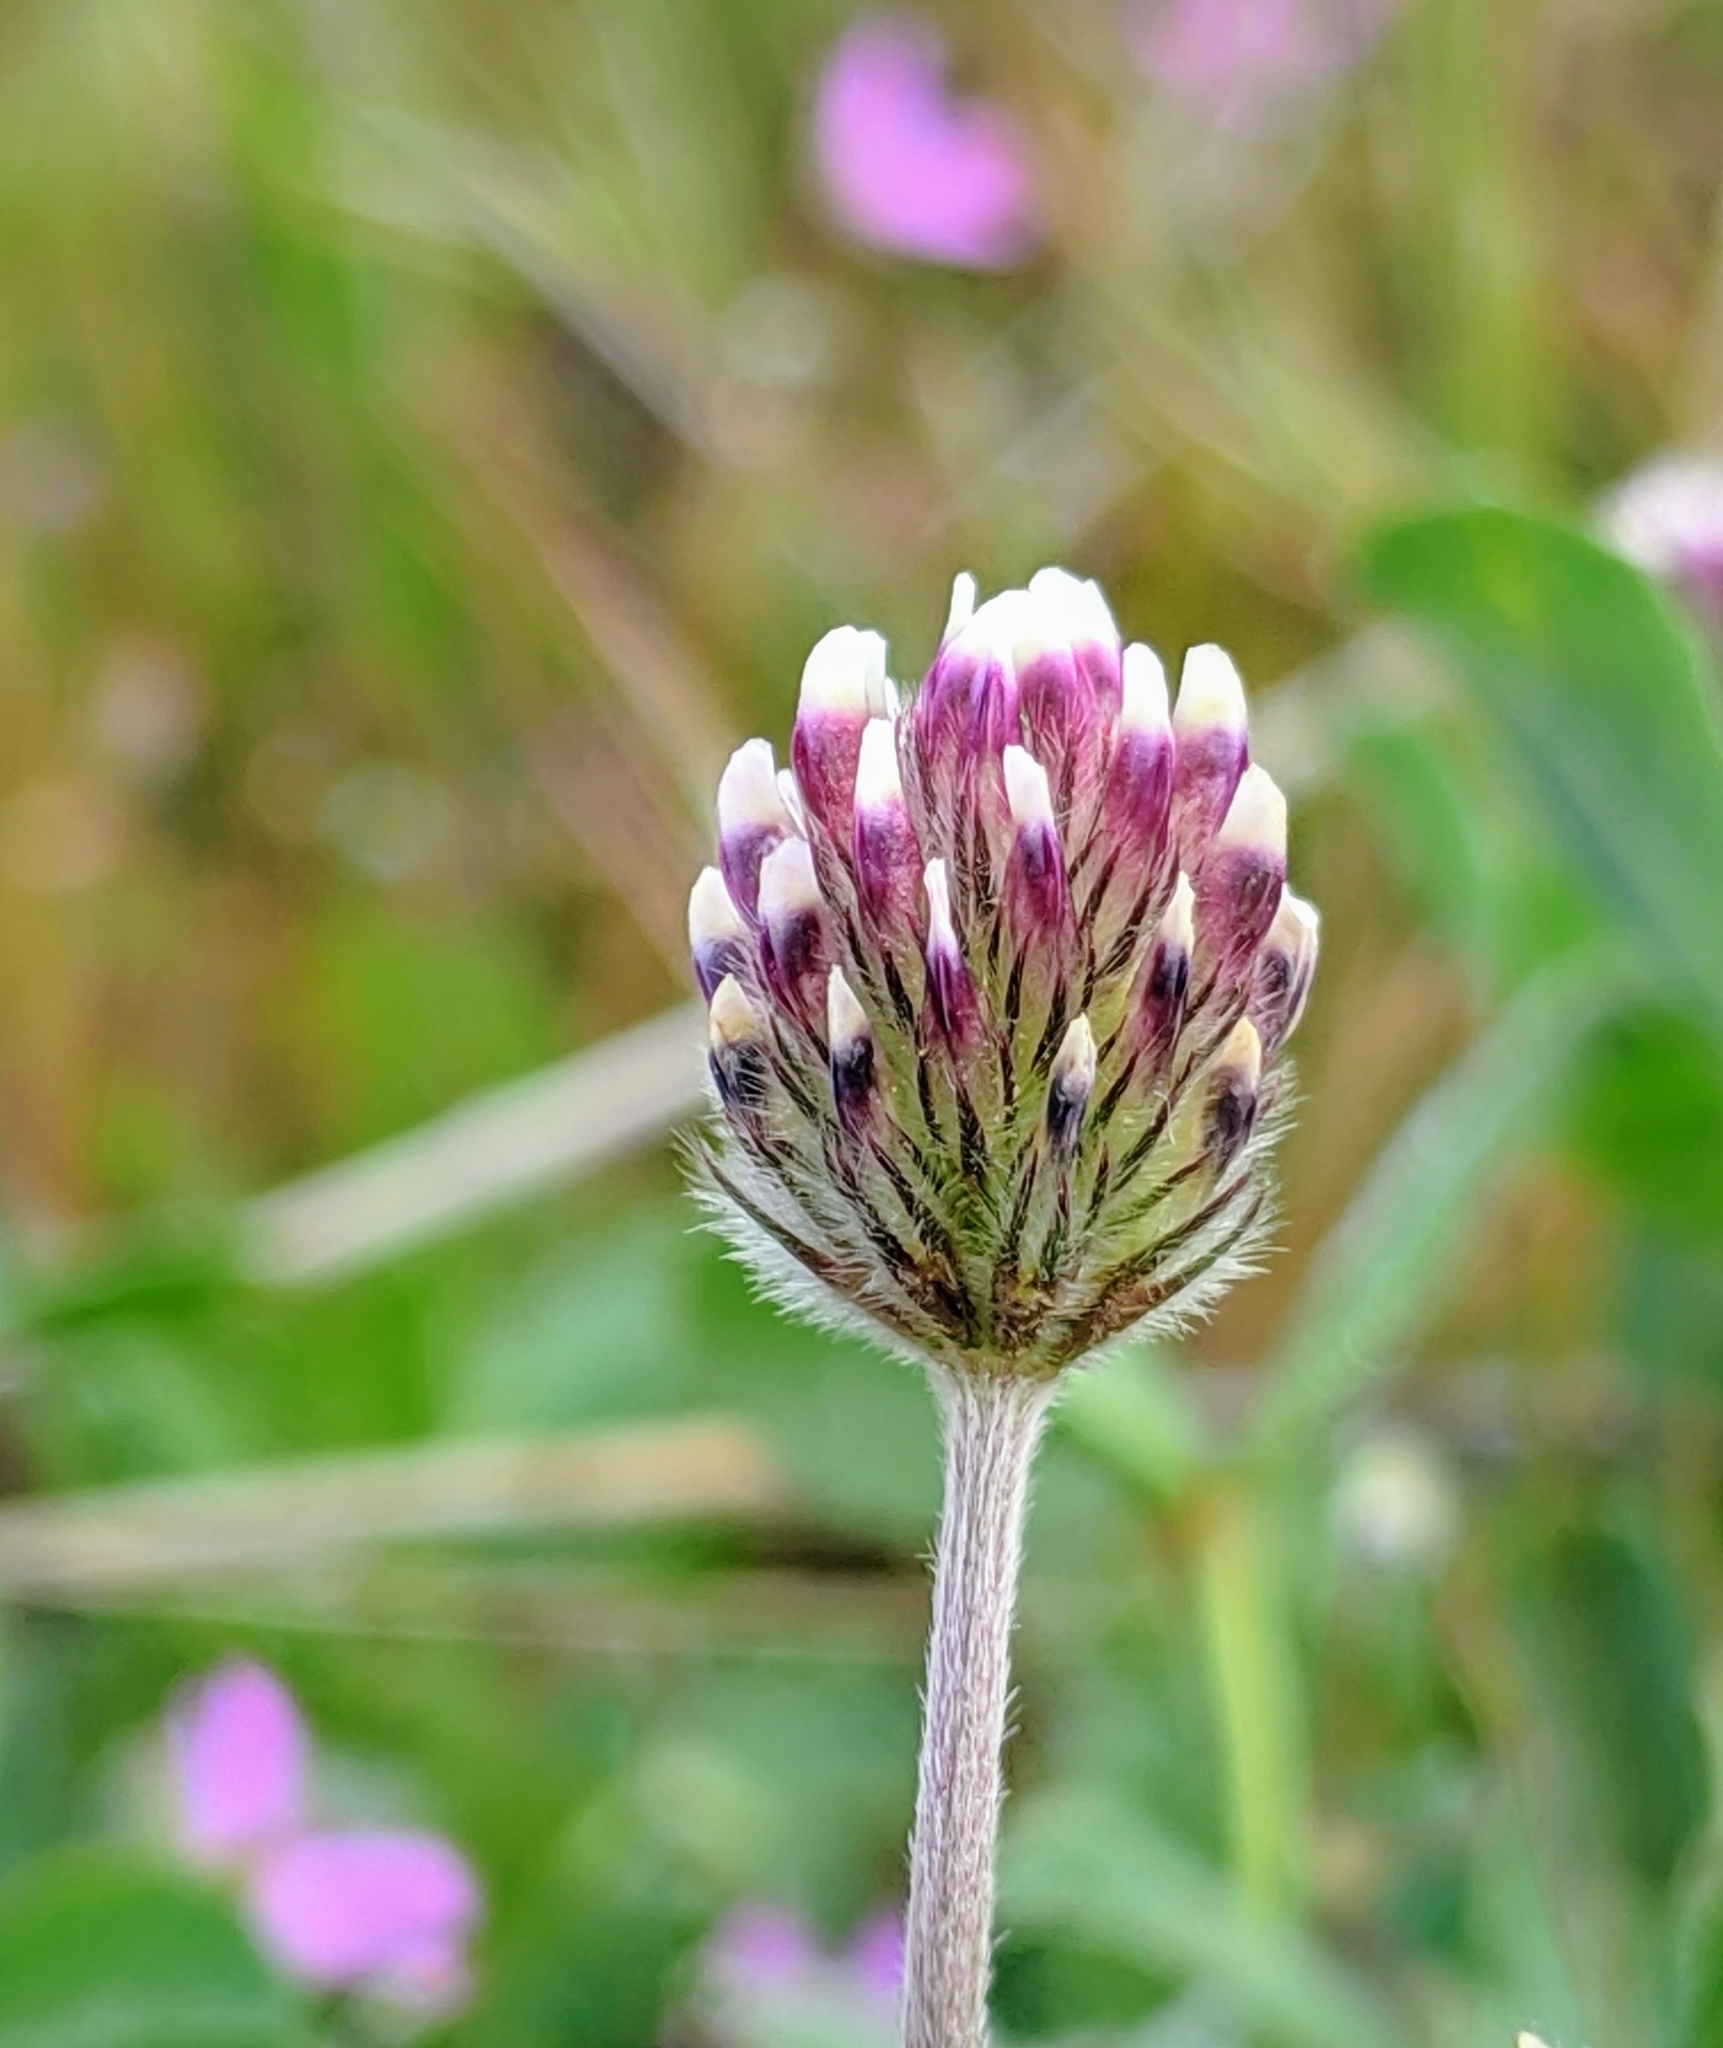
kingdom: Plantae
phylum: Tracheophyta
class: Magnoliopsida
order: Fabales
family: Fabaceae
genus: Trifolium
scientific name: Trifolium dichotomum
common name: Branched indian clover
